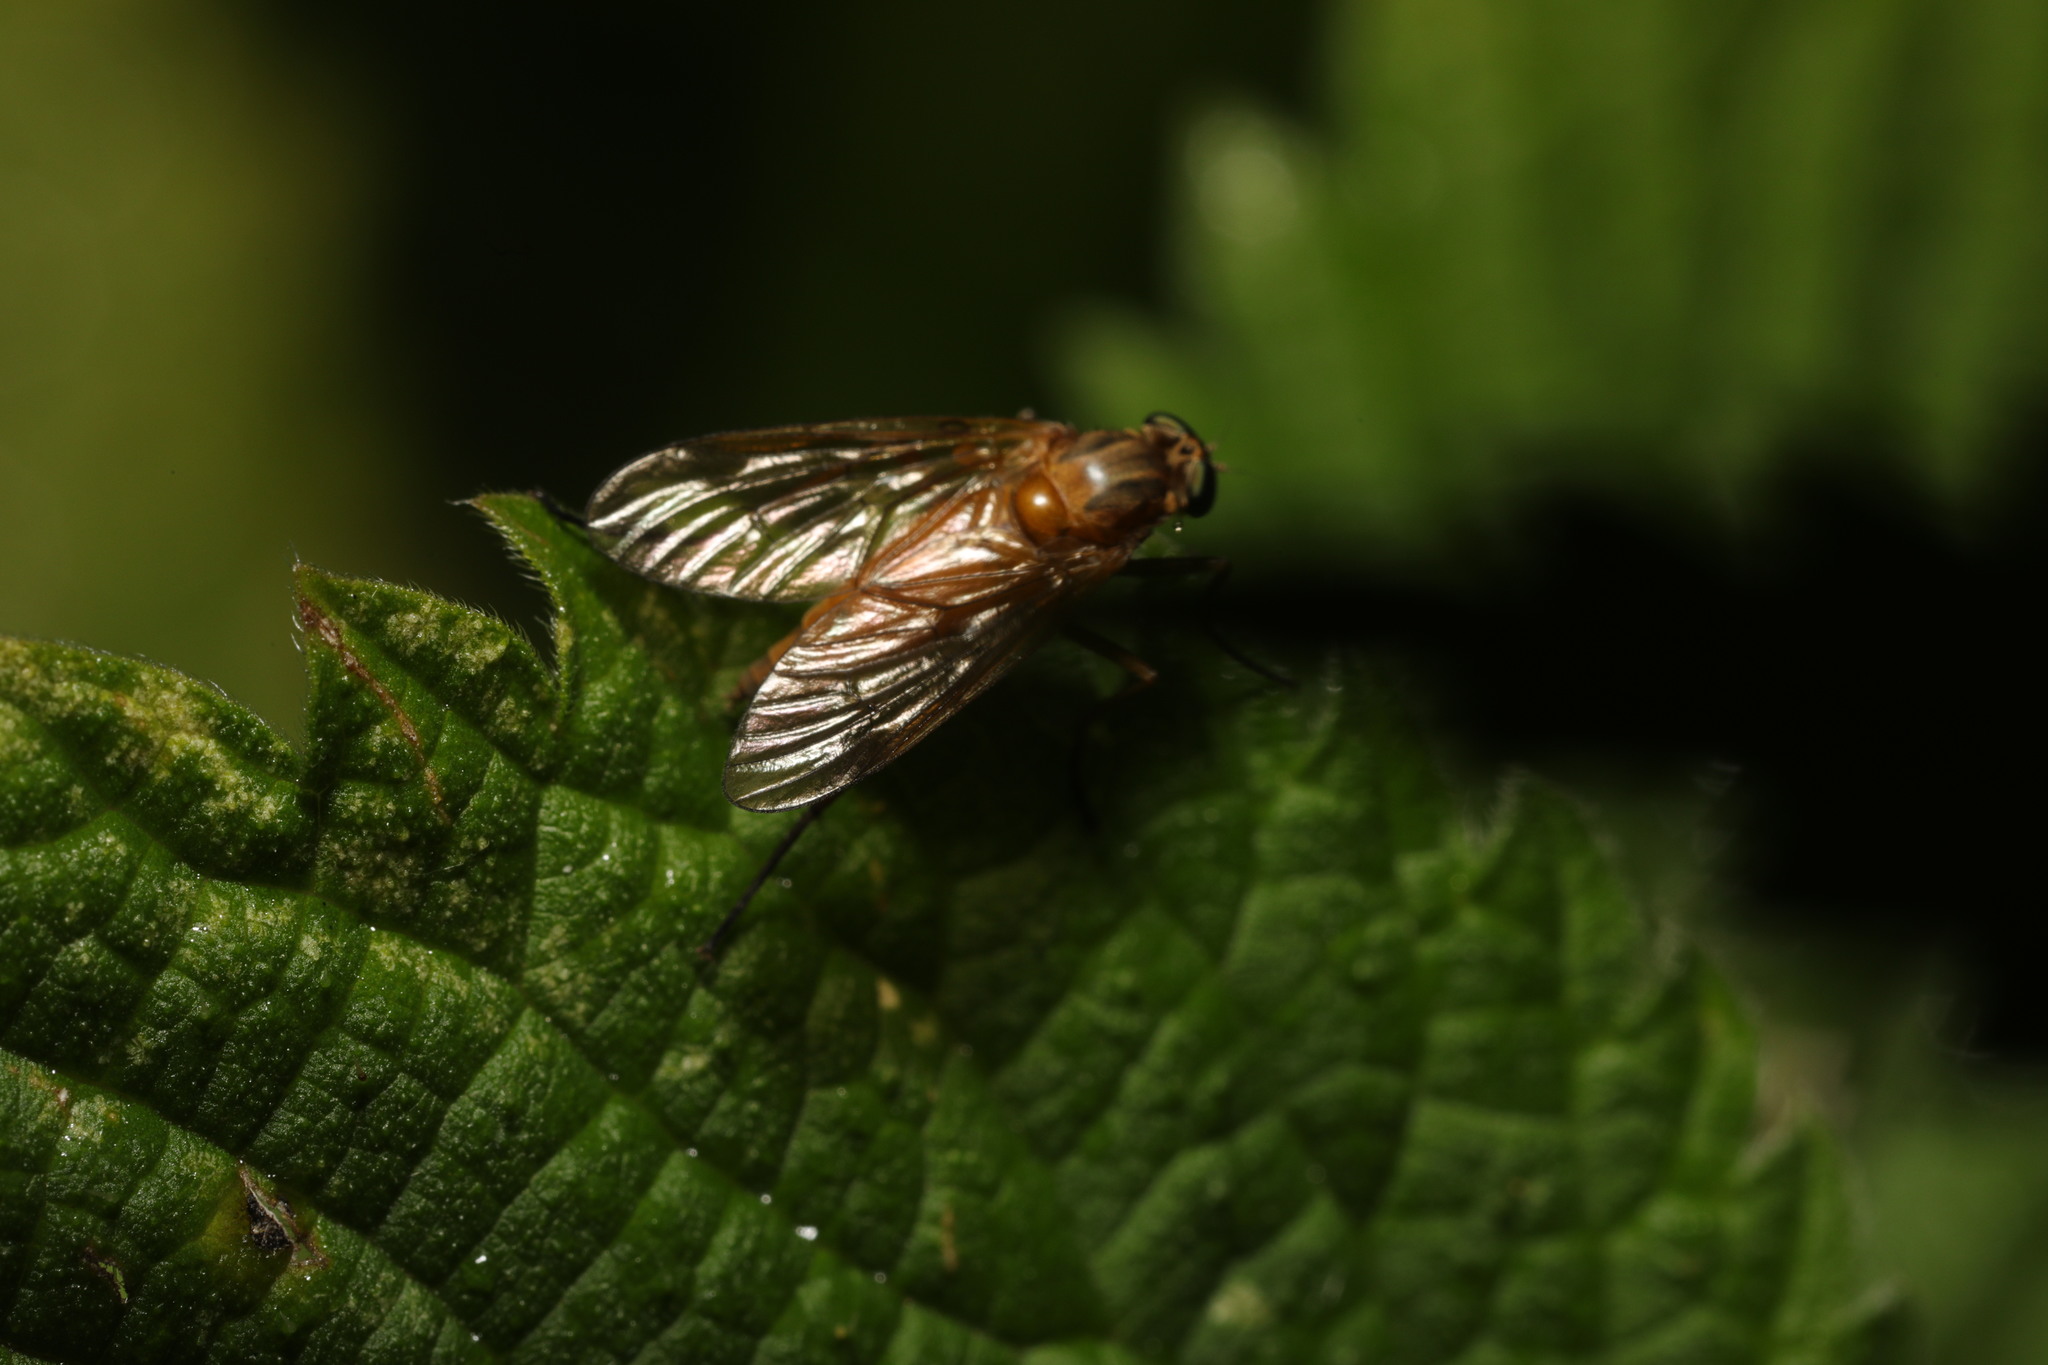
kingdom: Animalia
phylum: Arthropoda
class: Insecta
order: Diptera
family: Rhagionidae
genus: Rhagio
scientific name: Rhagio tringaria
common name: Marsh snipefly
